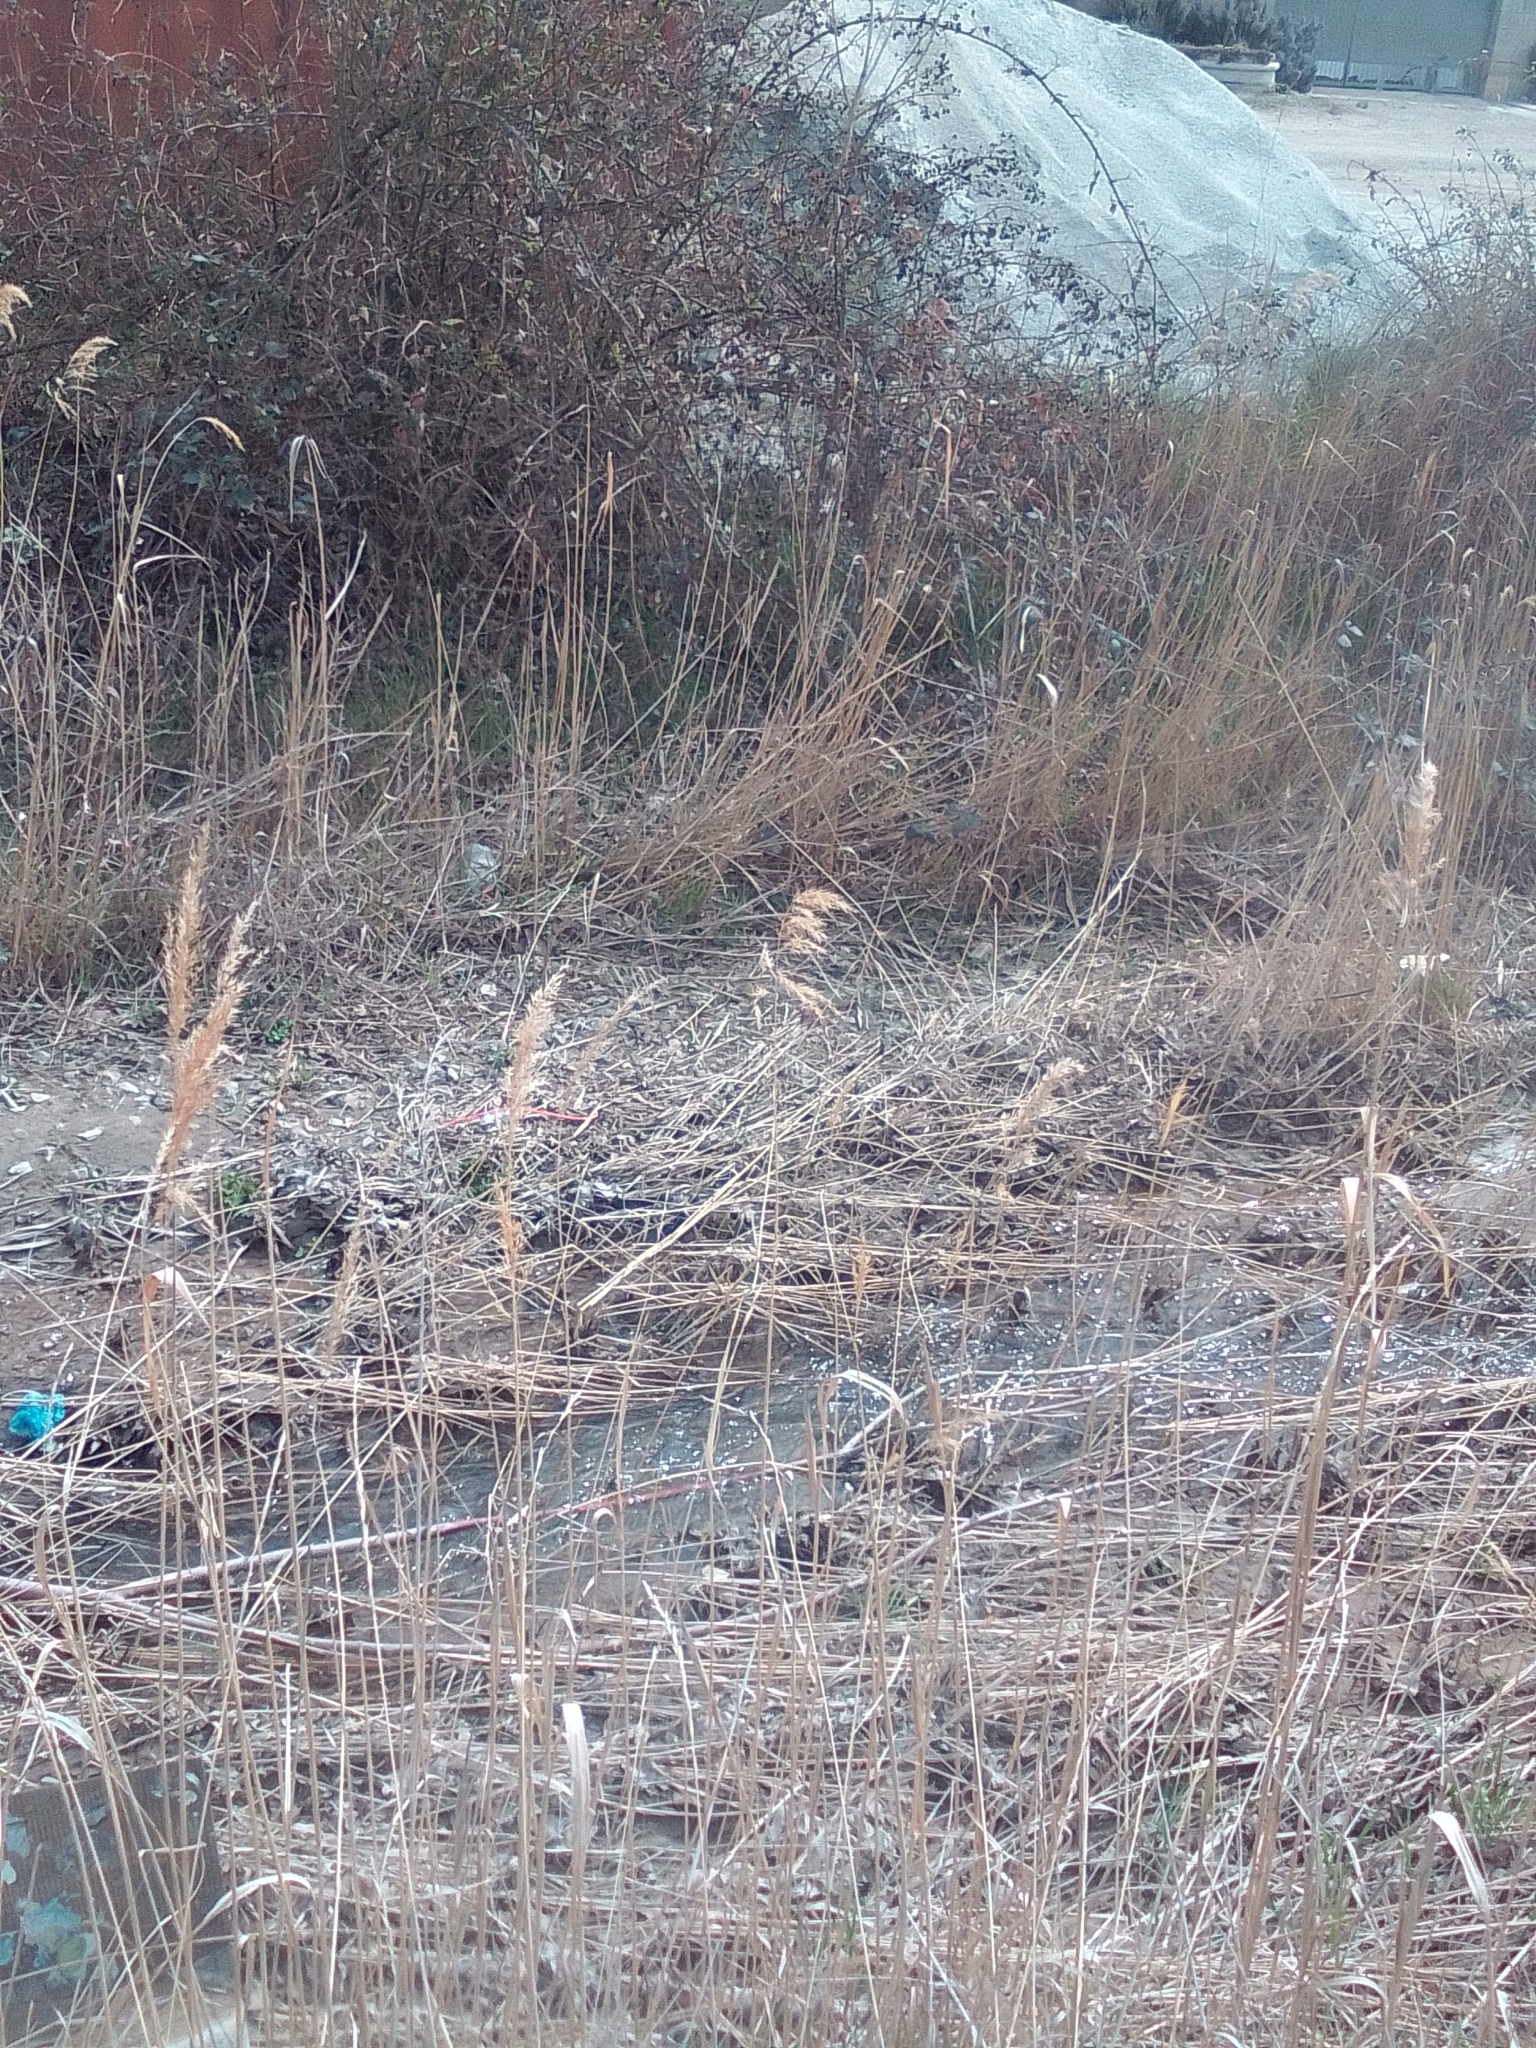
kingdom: Plantae
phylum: Tracheophyta
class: Liliopsida
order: Poales
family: Poaceae
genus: Phragmites
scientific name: Phragmites australis
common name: Common reed
